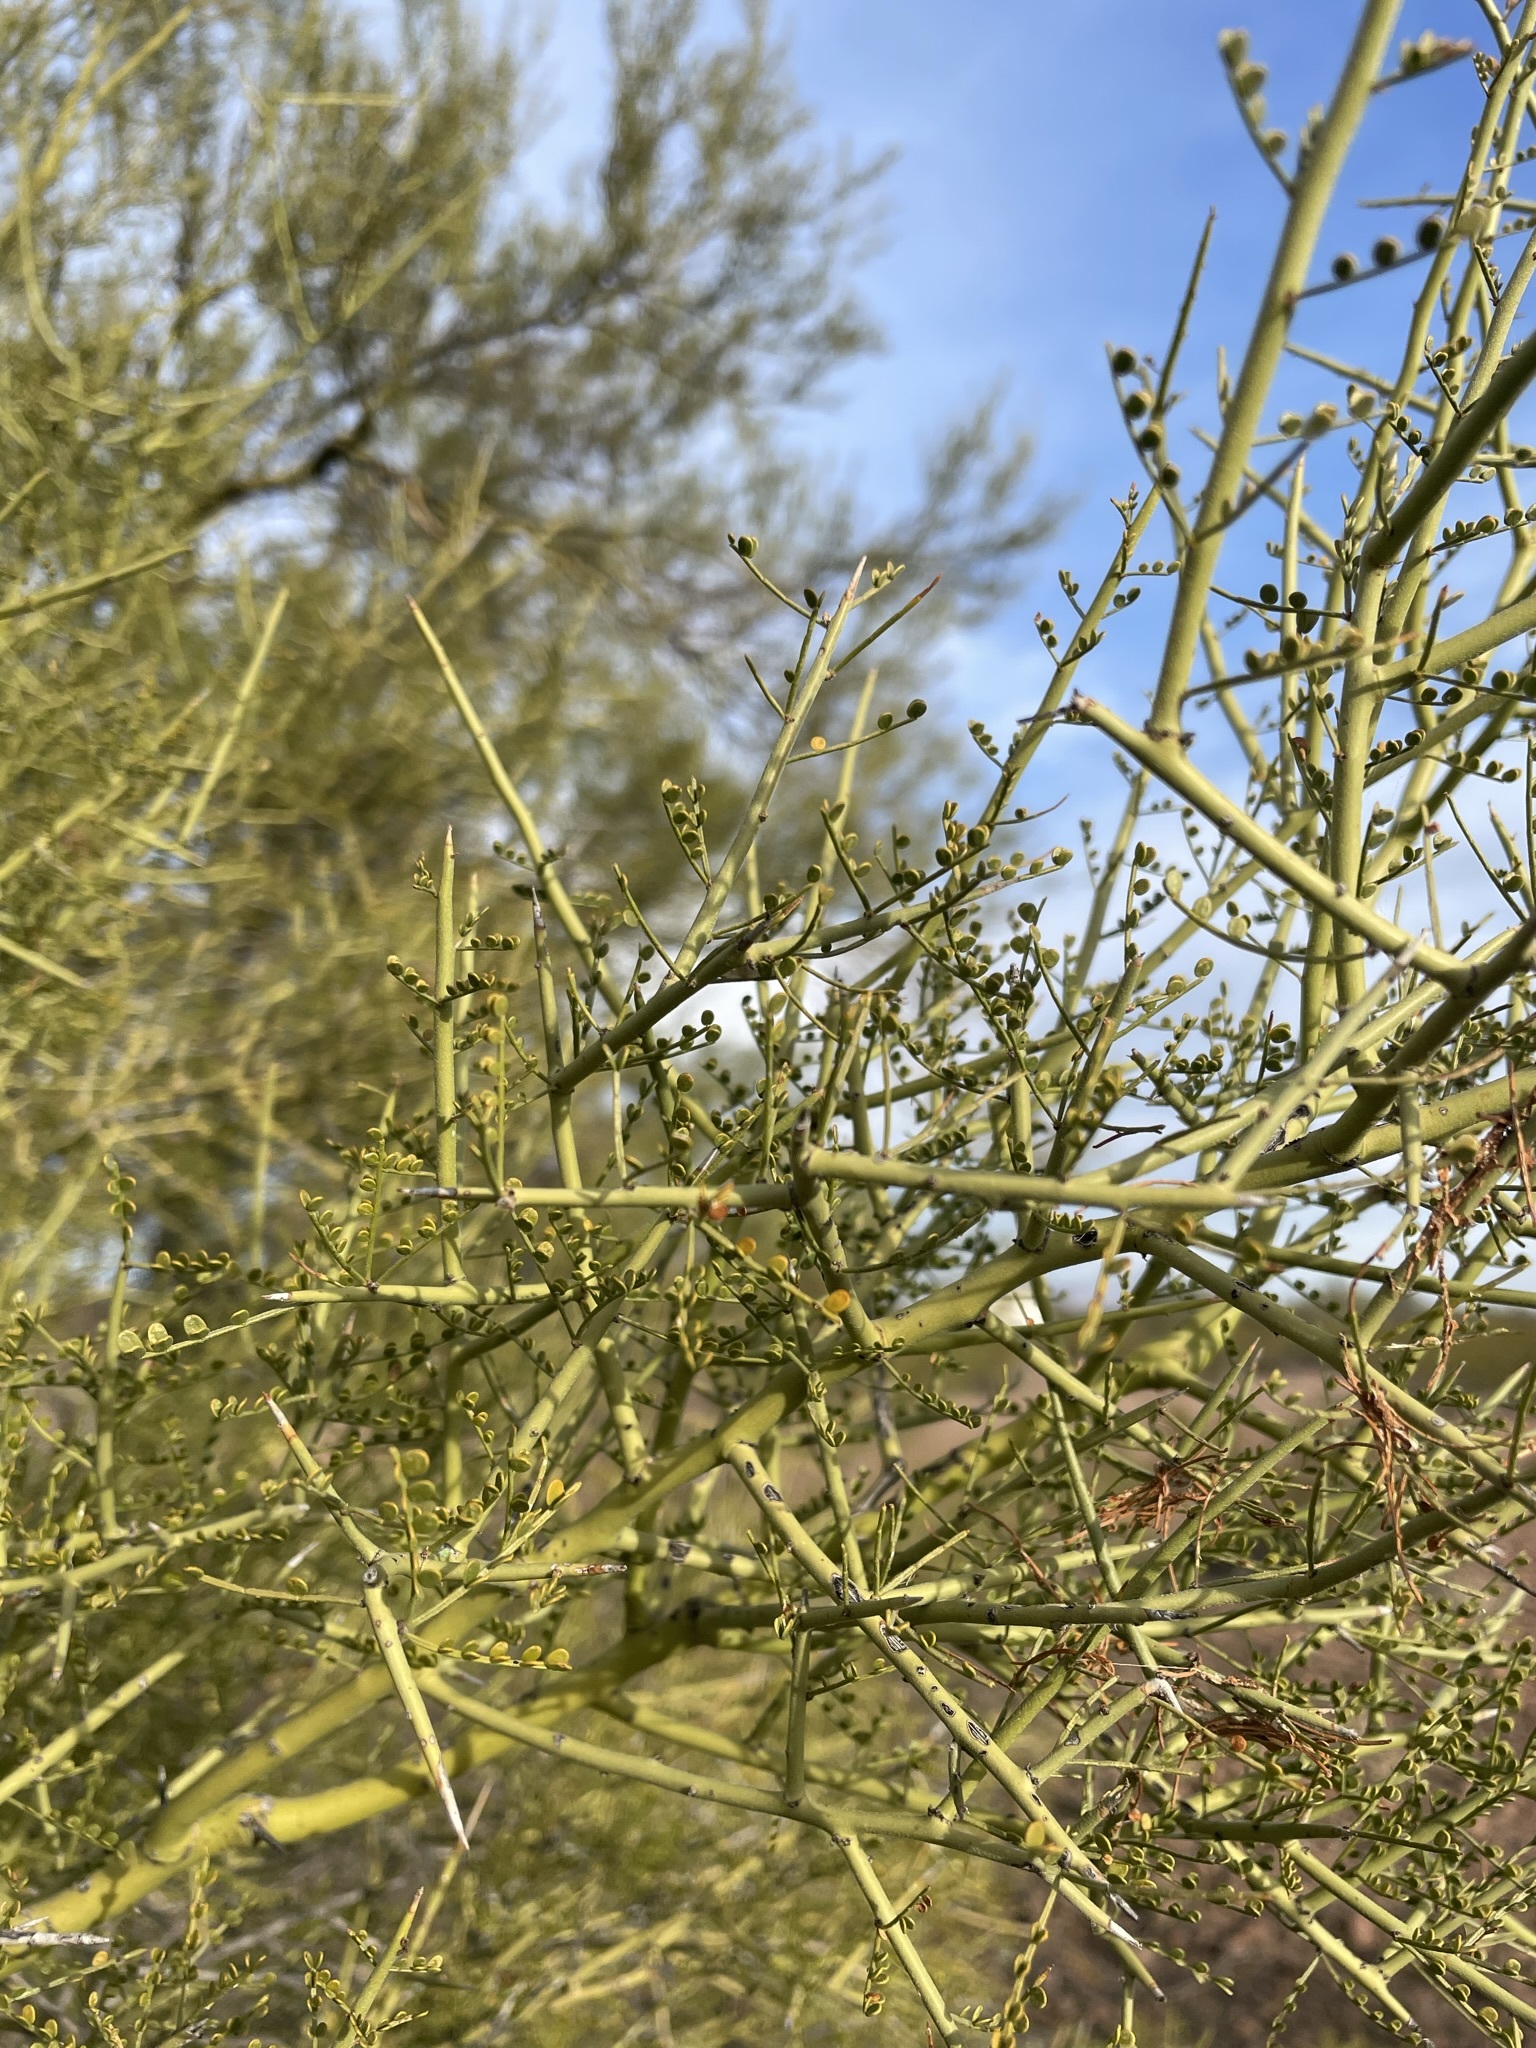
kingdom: Plantae
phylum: Tracheophyta
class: Magnoliopsida
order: Fabales
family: Fabaceae
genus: Parkinsonia
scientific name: Parkinsonia microphylla
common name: Yellow paloverde
